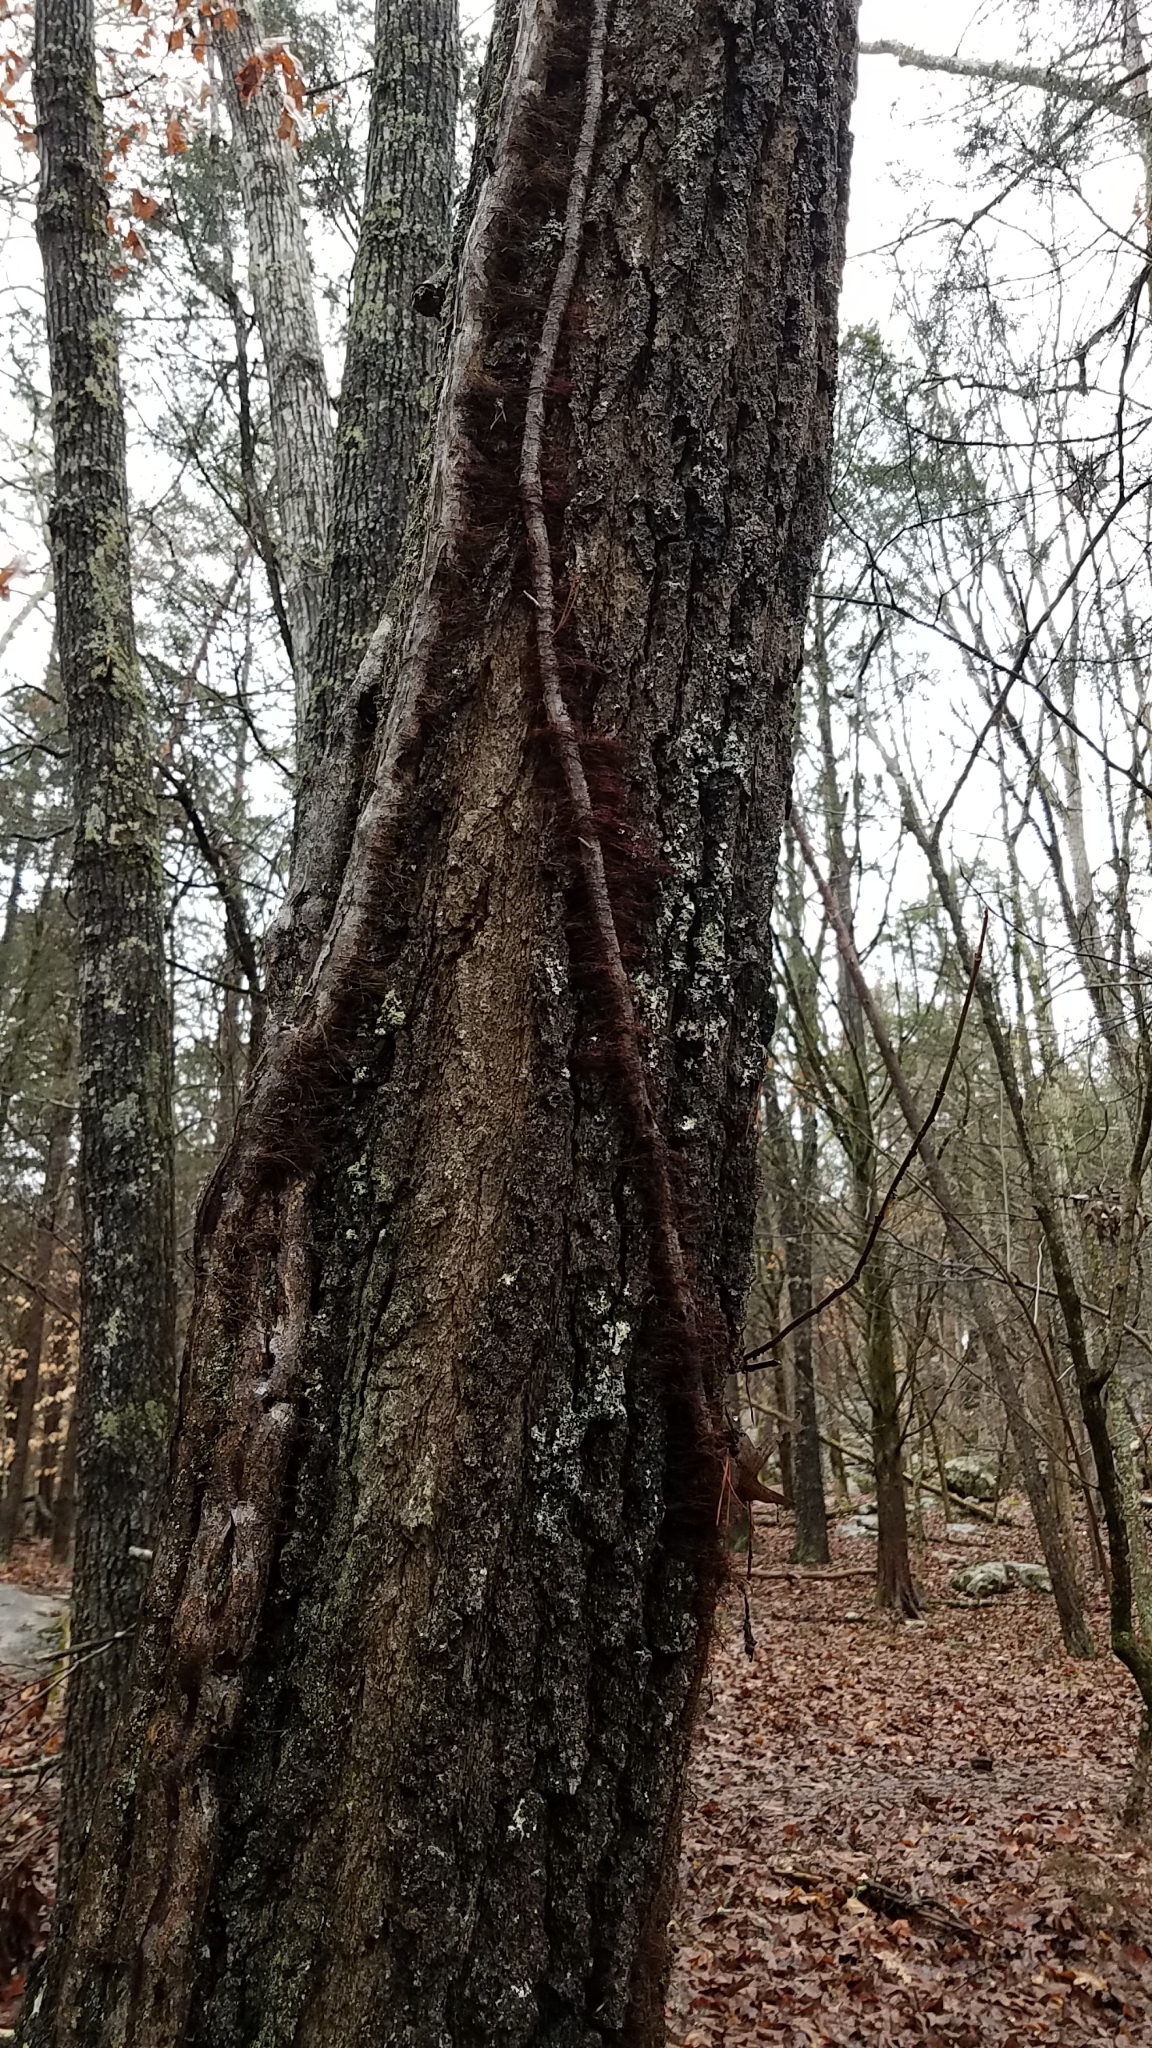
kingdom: Plantae
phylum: Tracheophyta
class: Magnoliopsida
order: Sapindales
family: Anacardiaceae
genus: Toxicodendron
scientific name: Toxicodendron radicans
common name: Poison ivy
